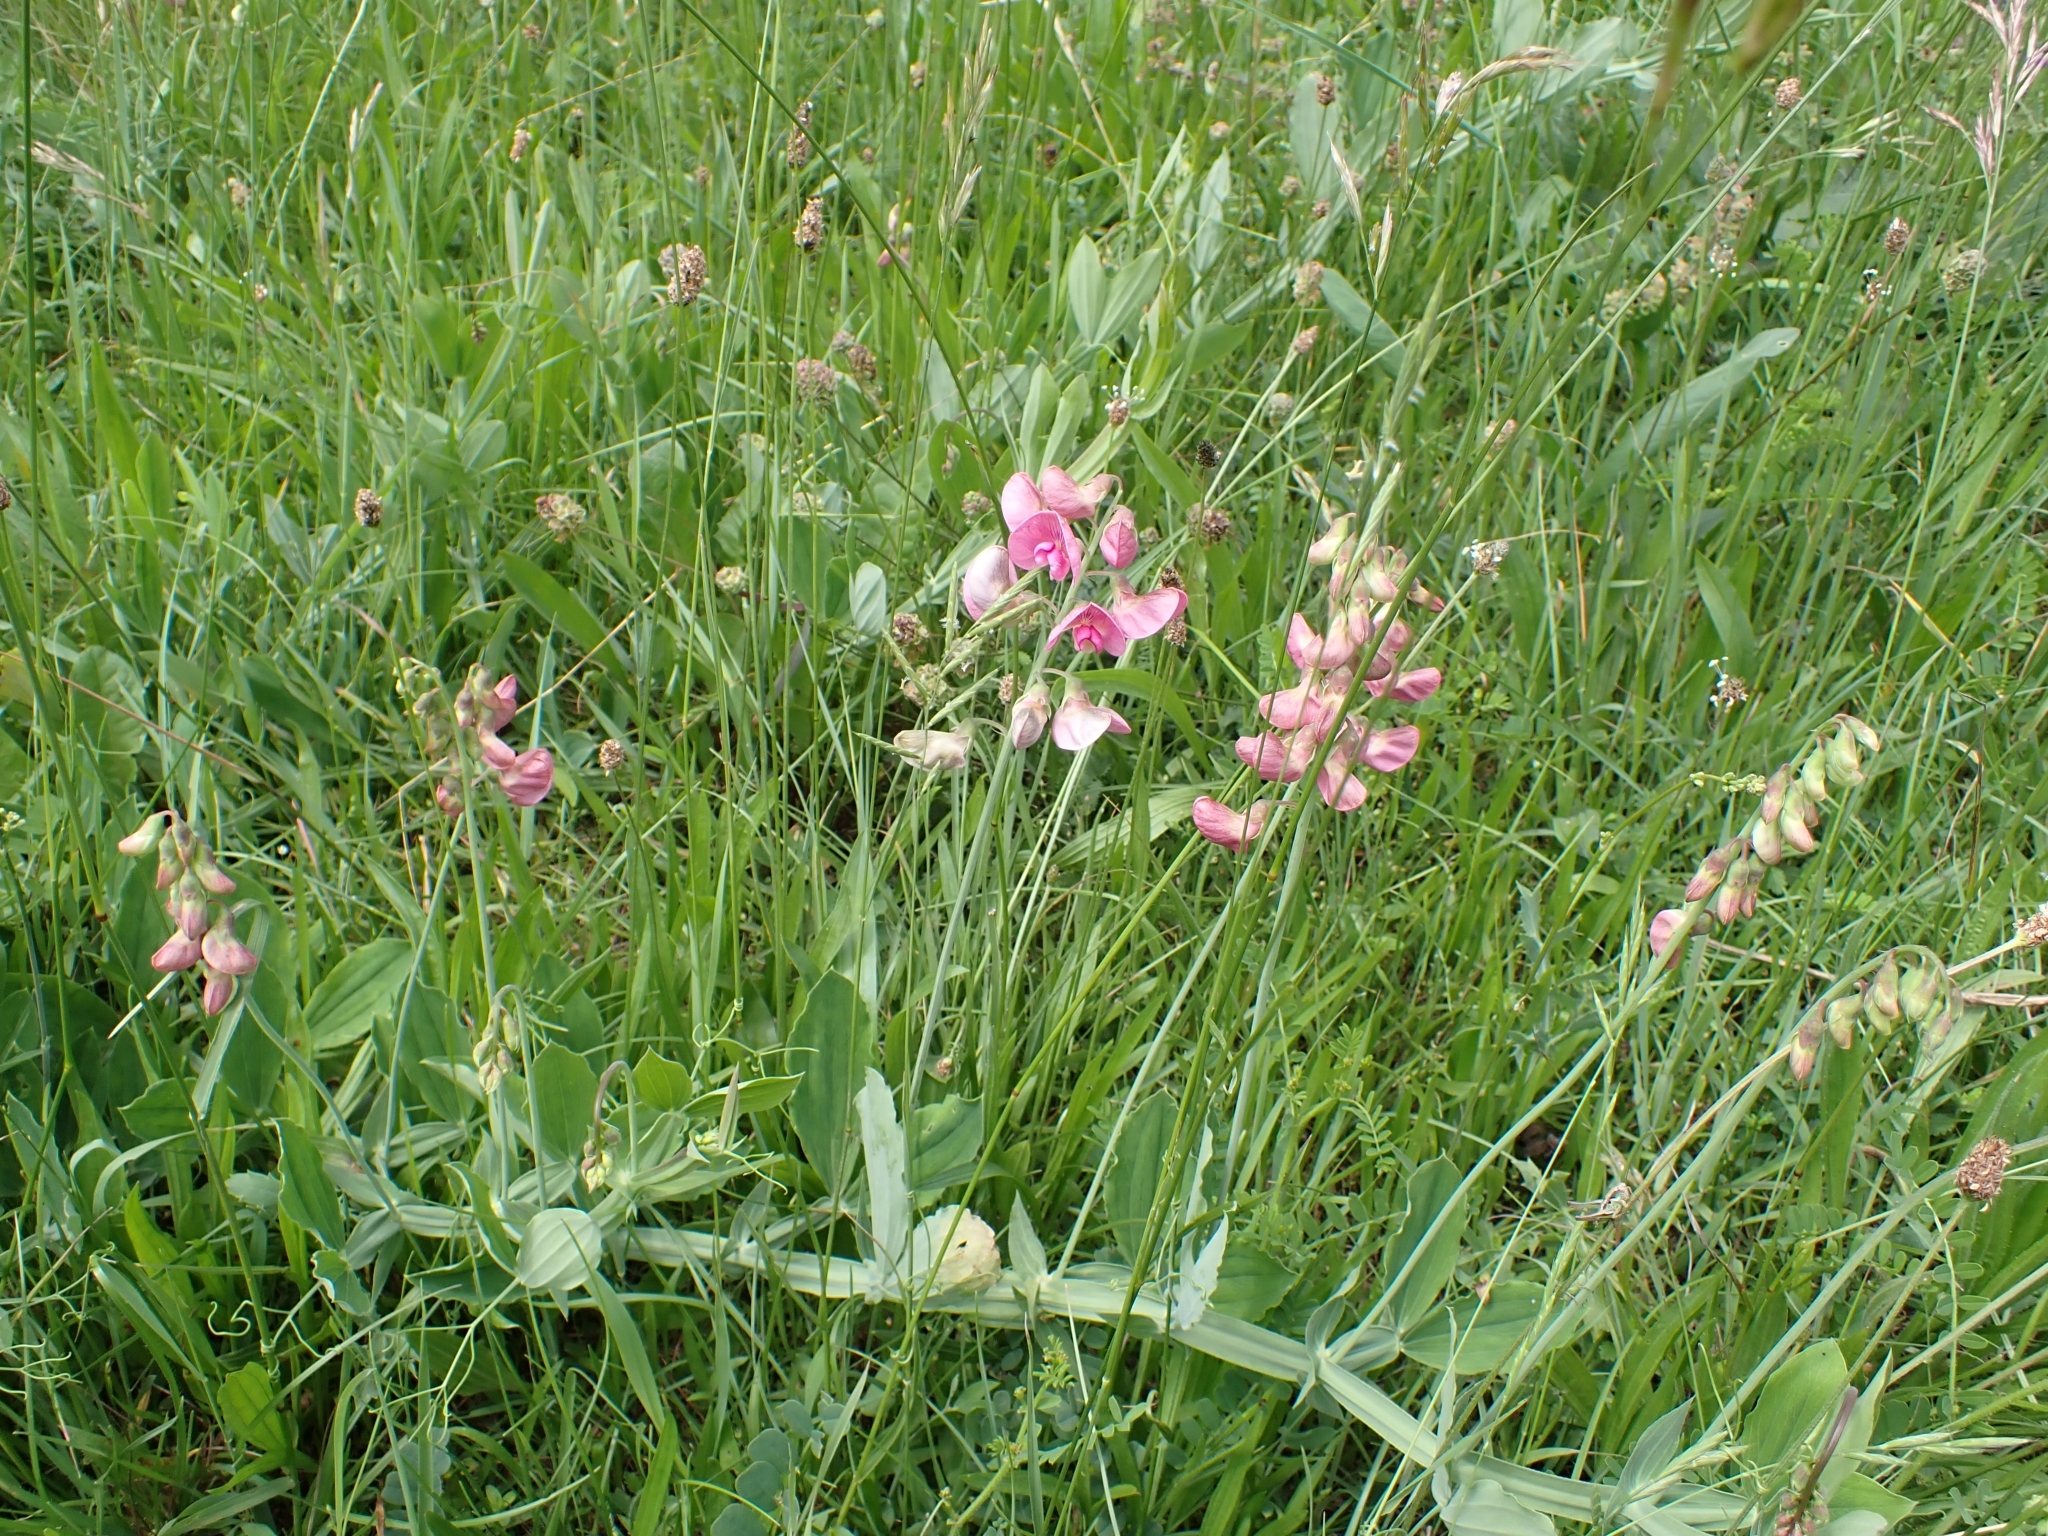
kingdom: Plantae
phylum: Tracheophyta
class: Magnoliopsida
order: Fabales
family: Fabaceae
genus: Lathyrus
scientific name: Lathyrus latifolius
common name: Perennial pea
